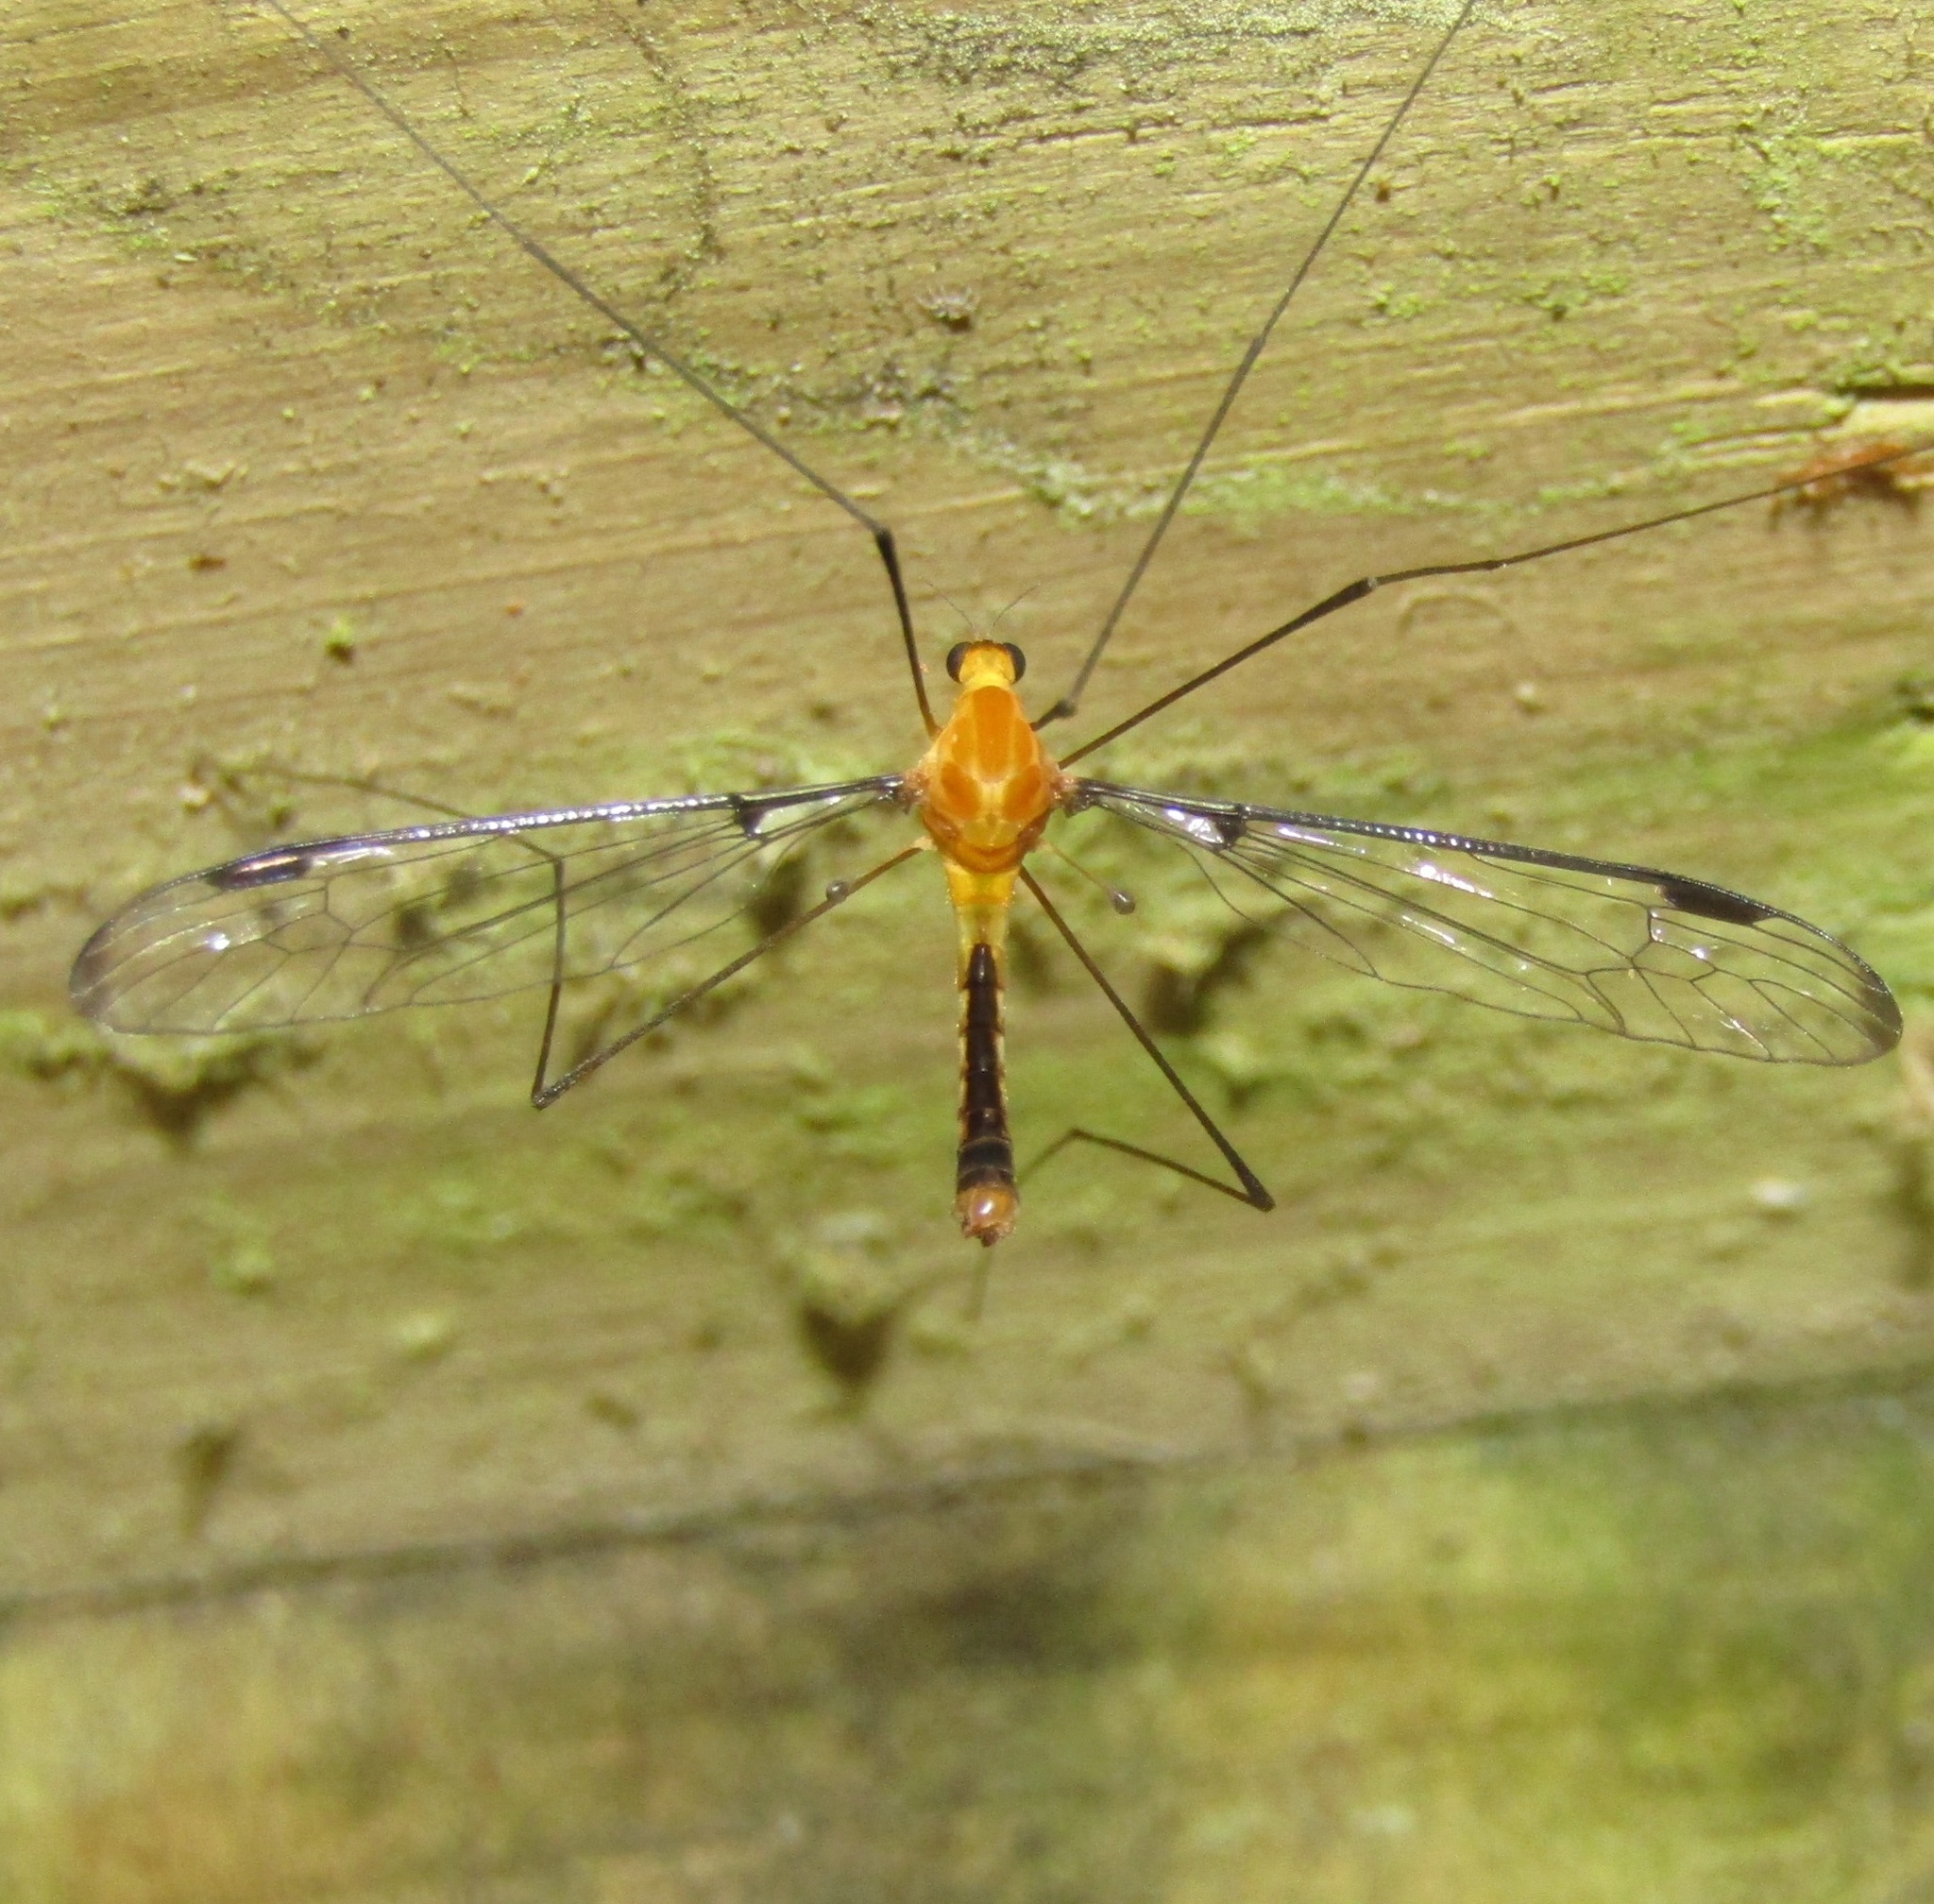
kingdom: Animalia
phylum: Arthropoda
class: Insecta
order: Diptera
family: Tipulidae
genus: Aurotipula
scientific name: Aurotipula
